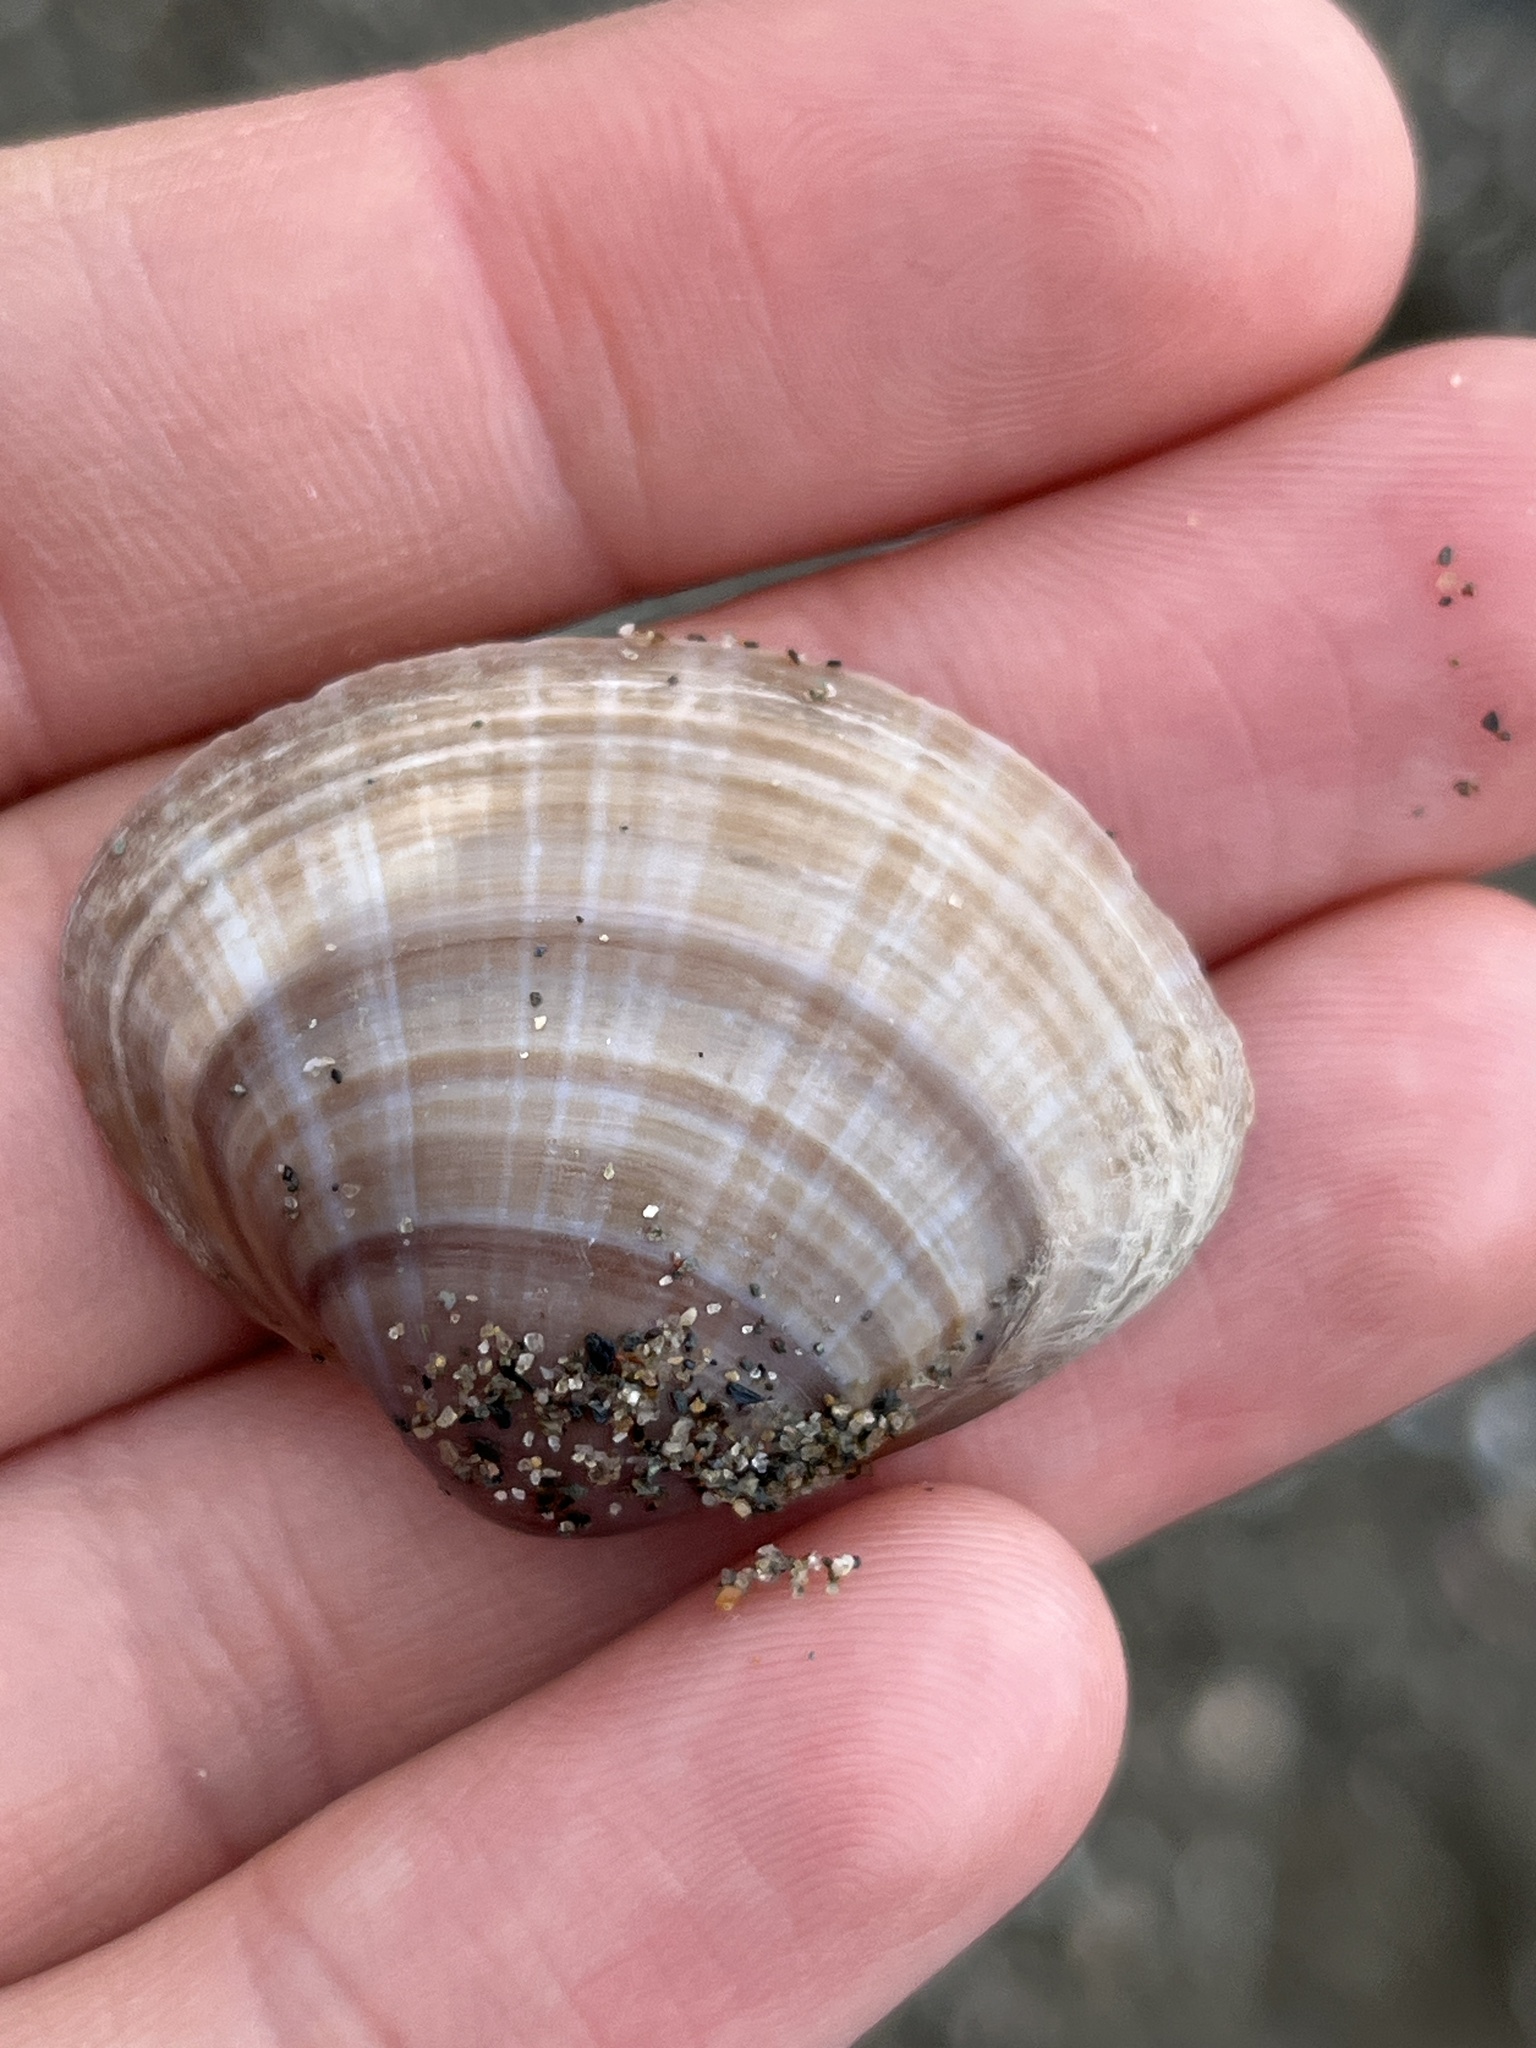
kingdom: Animalia
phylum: Mollusca
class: Bivalvia
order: Venerida
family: Mactridae
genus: Mactra
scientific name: Mactra stultorum
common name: Rayed trough shell
